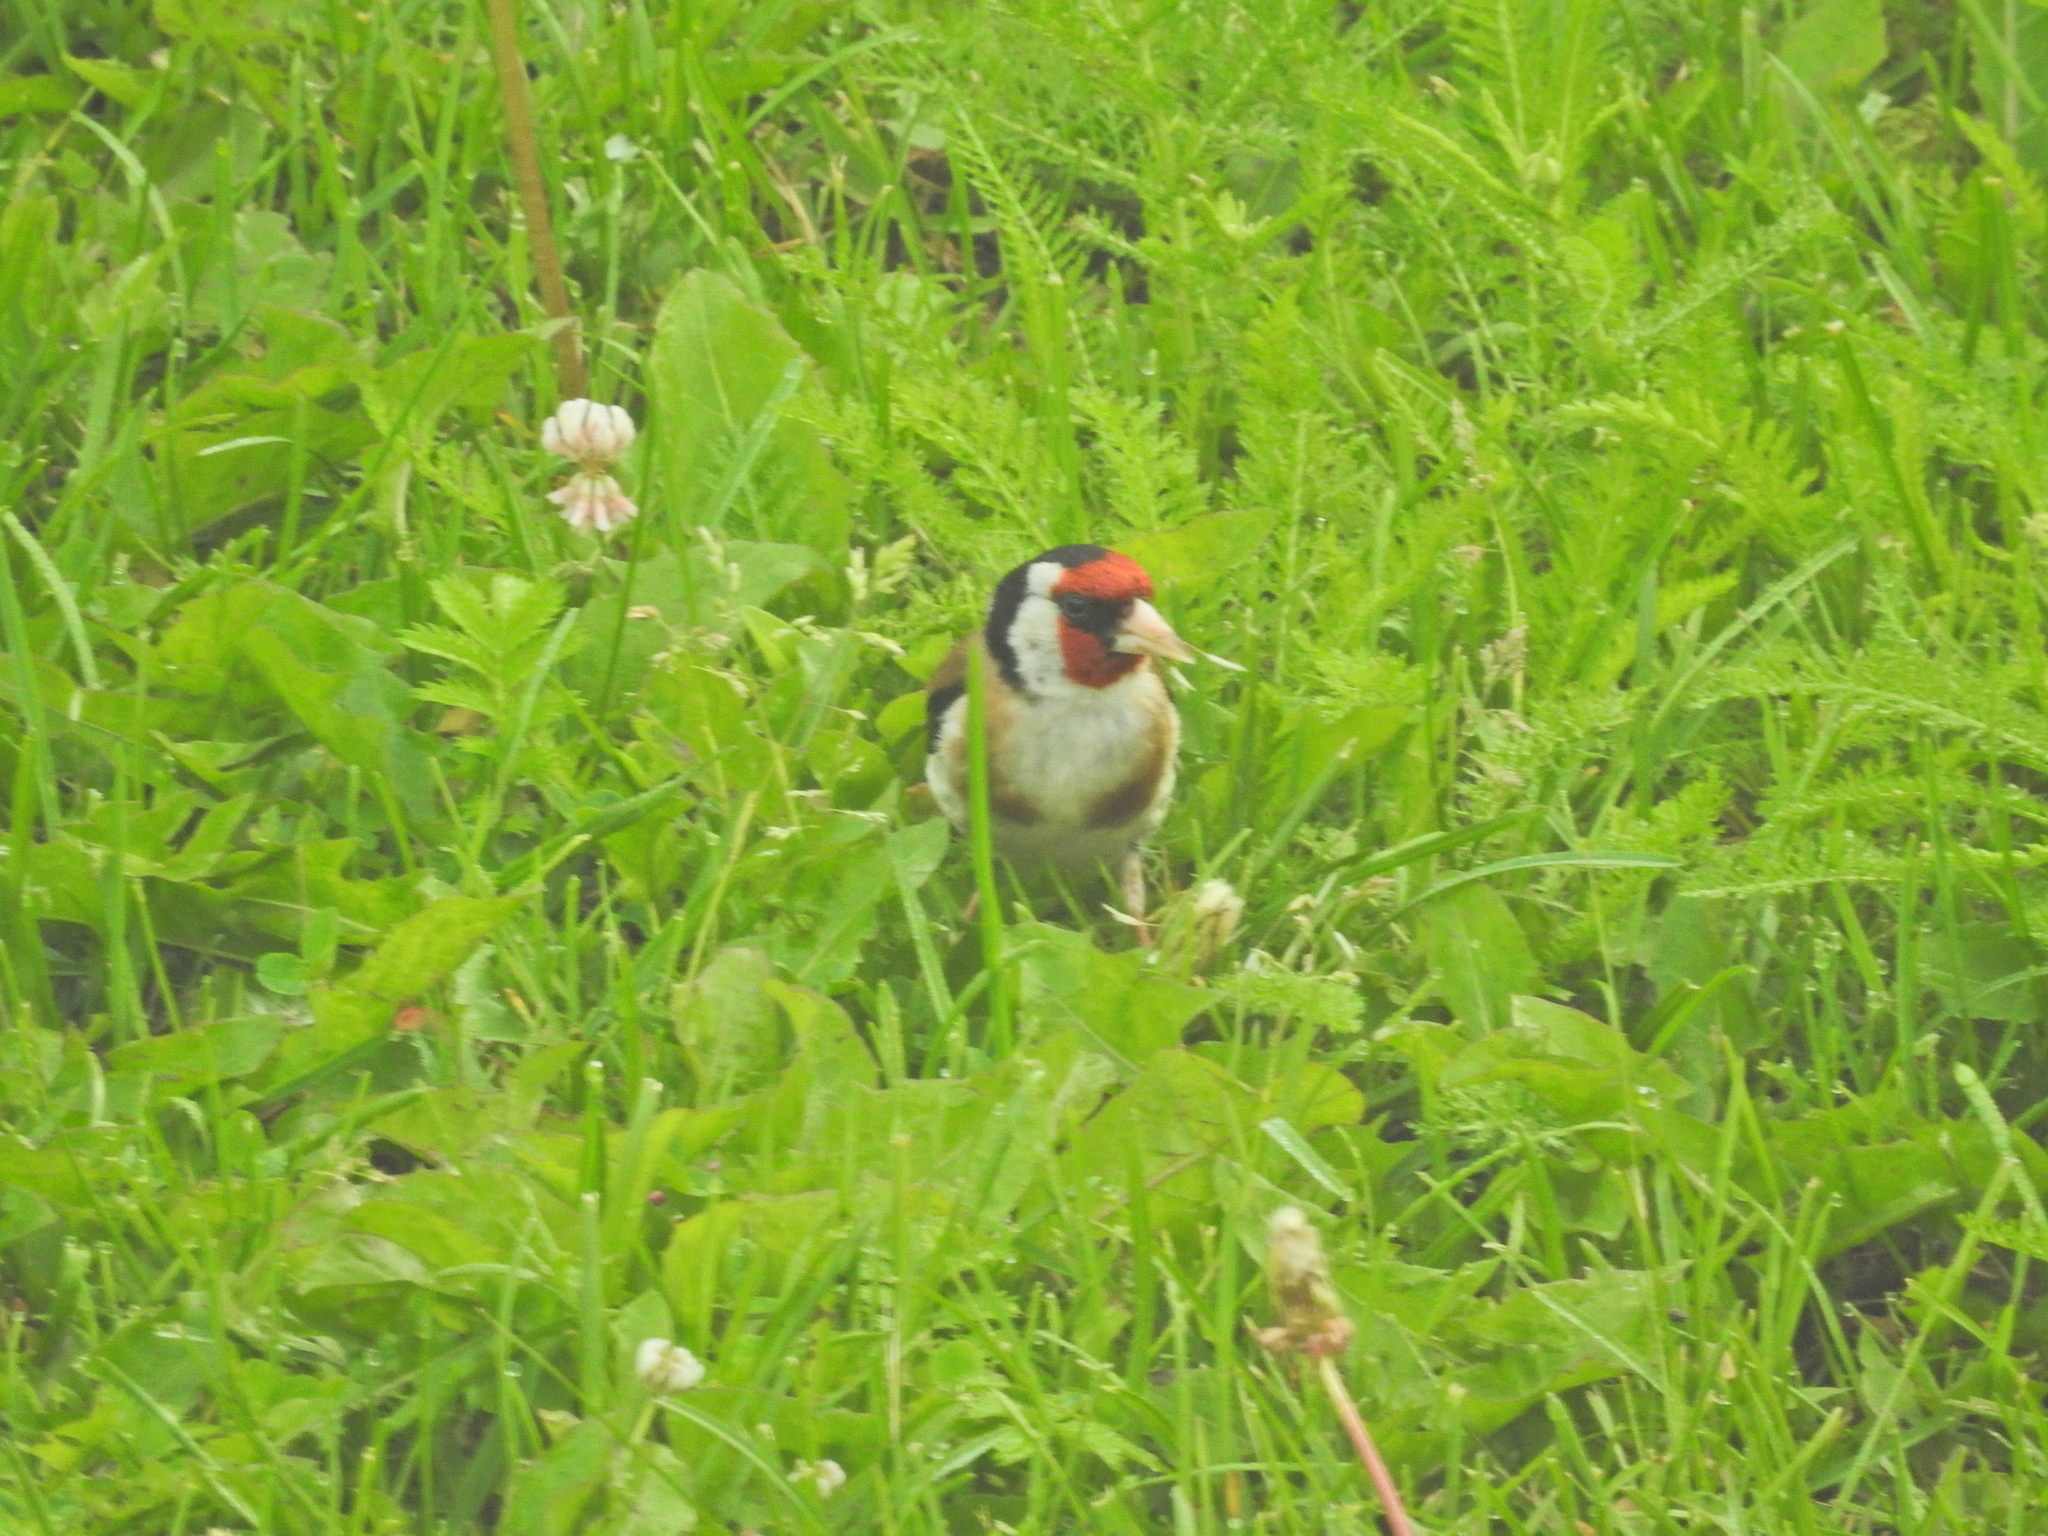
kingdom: Animalia
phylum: Chordata
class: Aves
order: Passeriformes
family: Fringillidae
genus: Carduelis
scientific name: Carduelis carduelis
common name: European goldfinch
